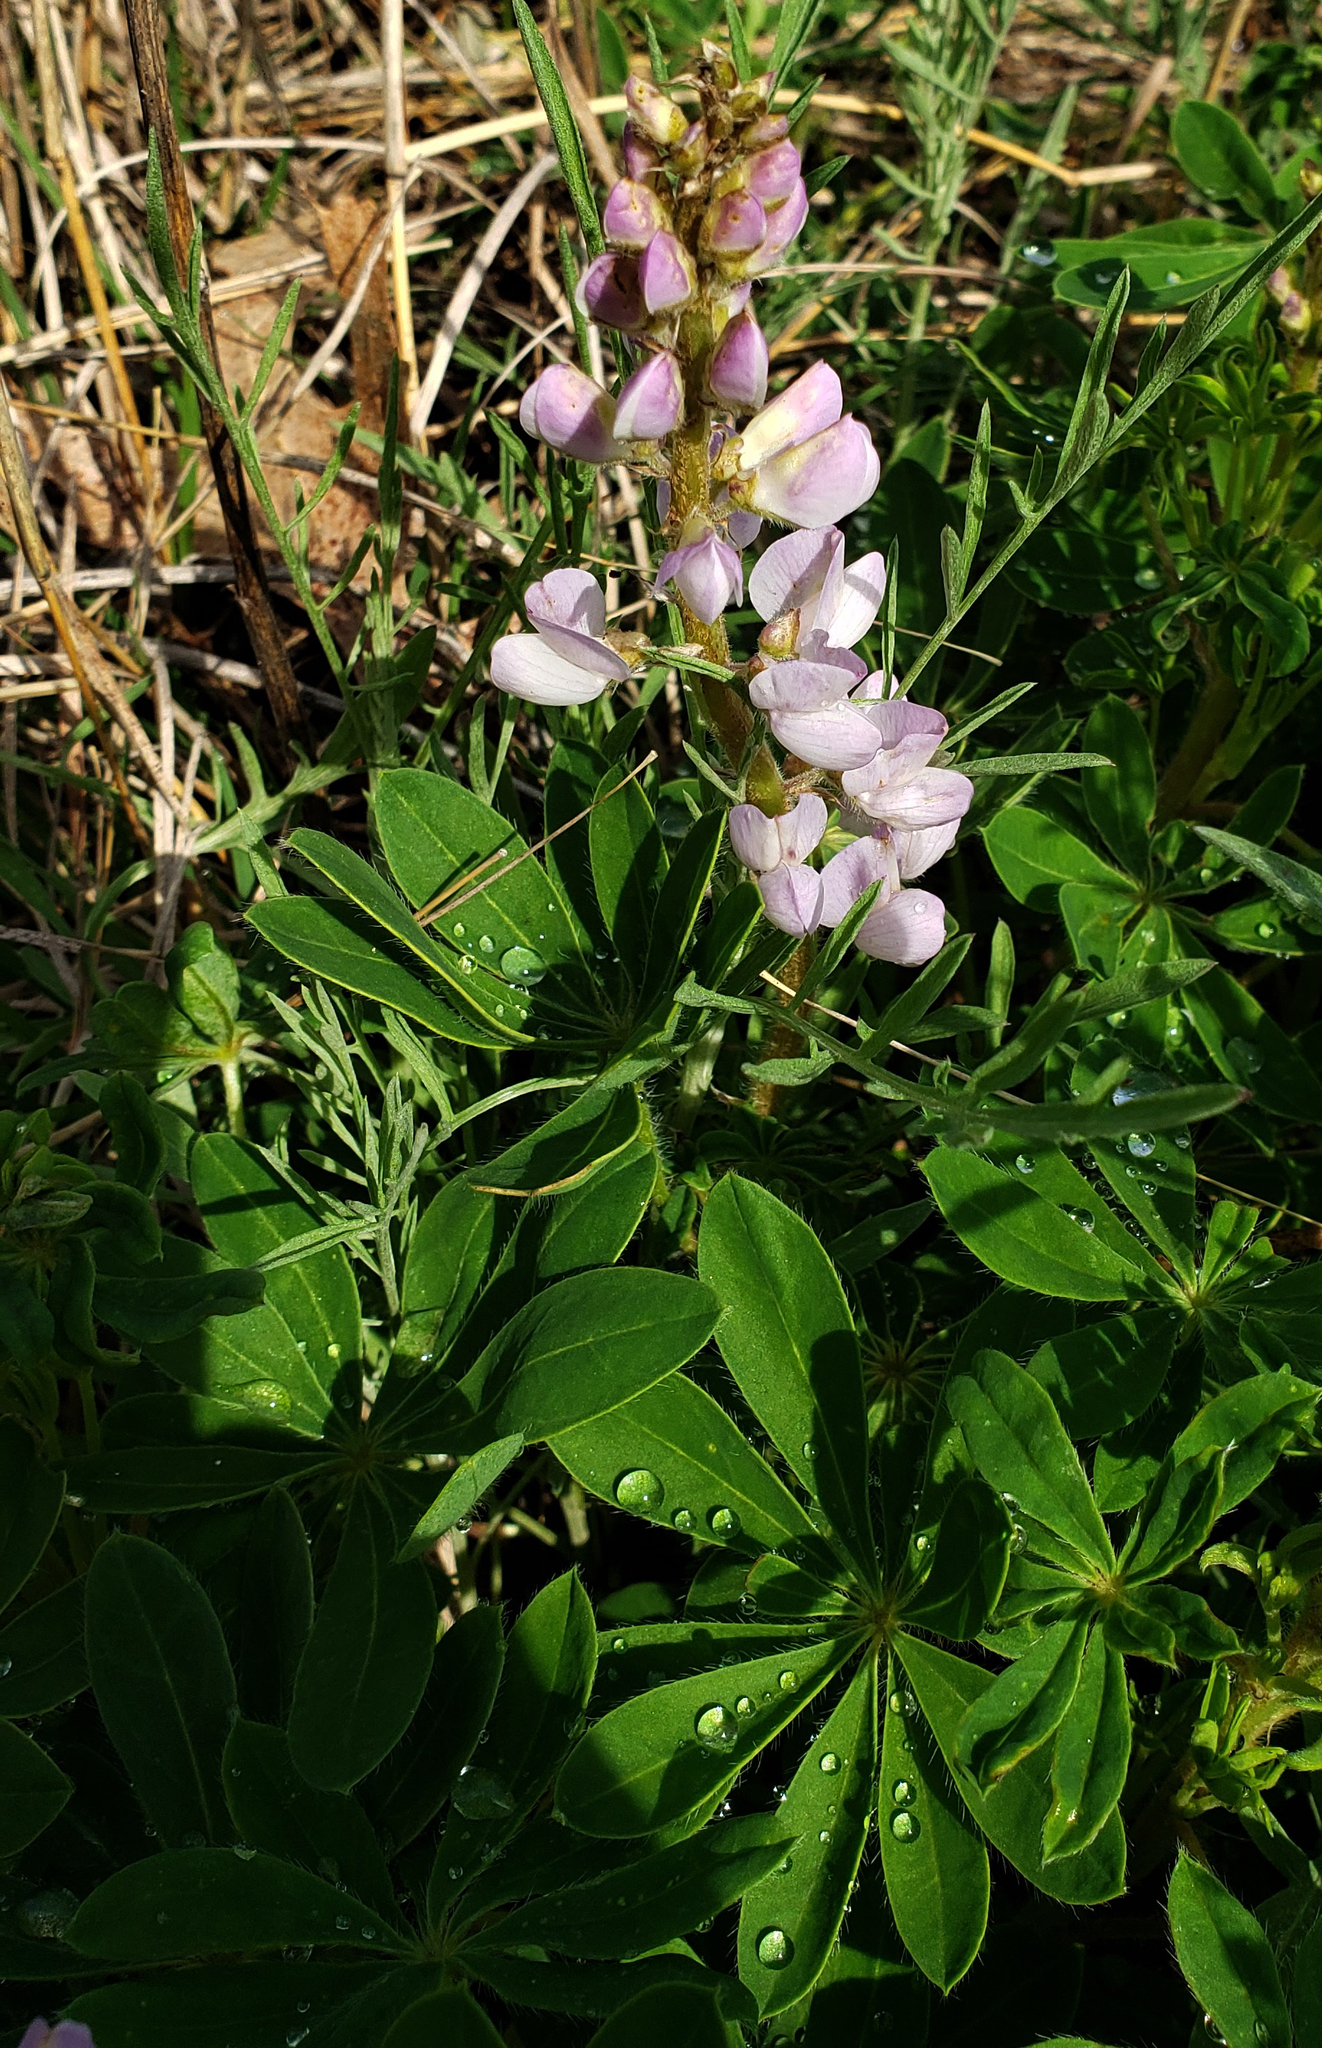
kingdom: Plantae
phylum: Tracheophyta
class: Magnoliopsida
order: Fabales
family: Fabaceae
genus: Lupinus
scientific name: Lupinus perennis
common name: Sundial lupine
